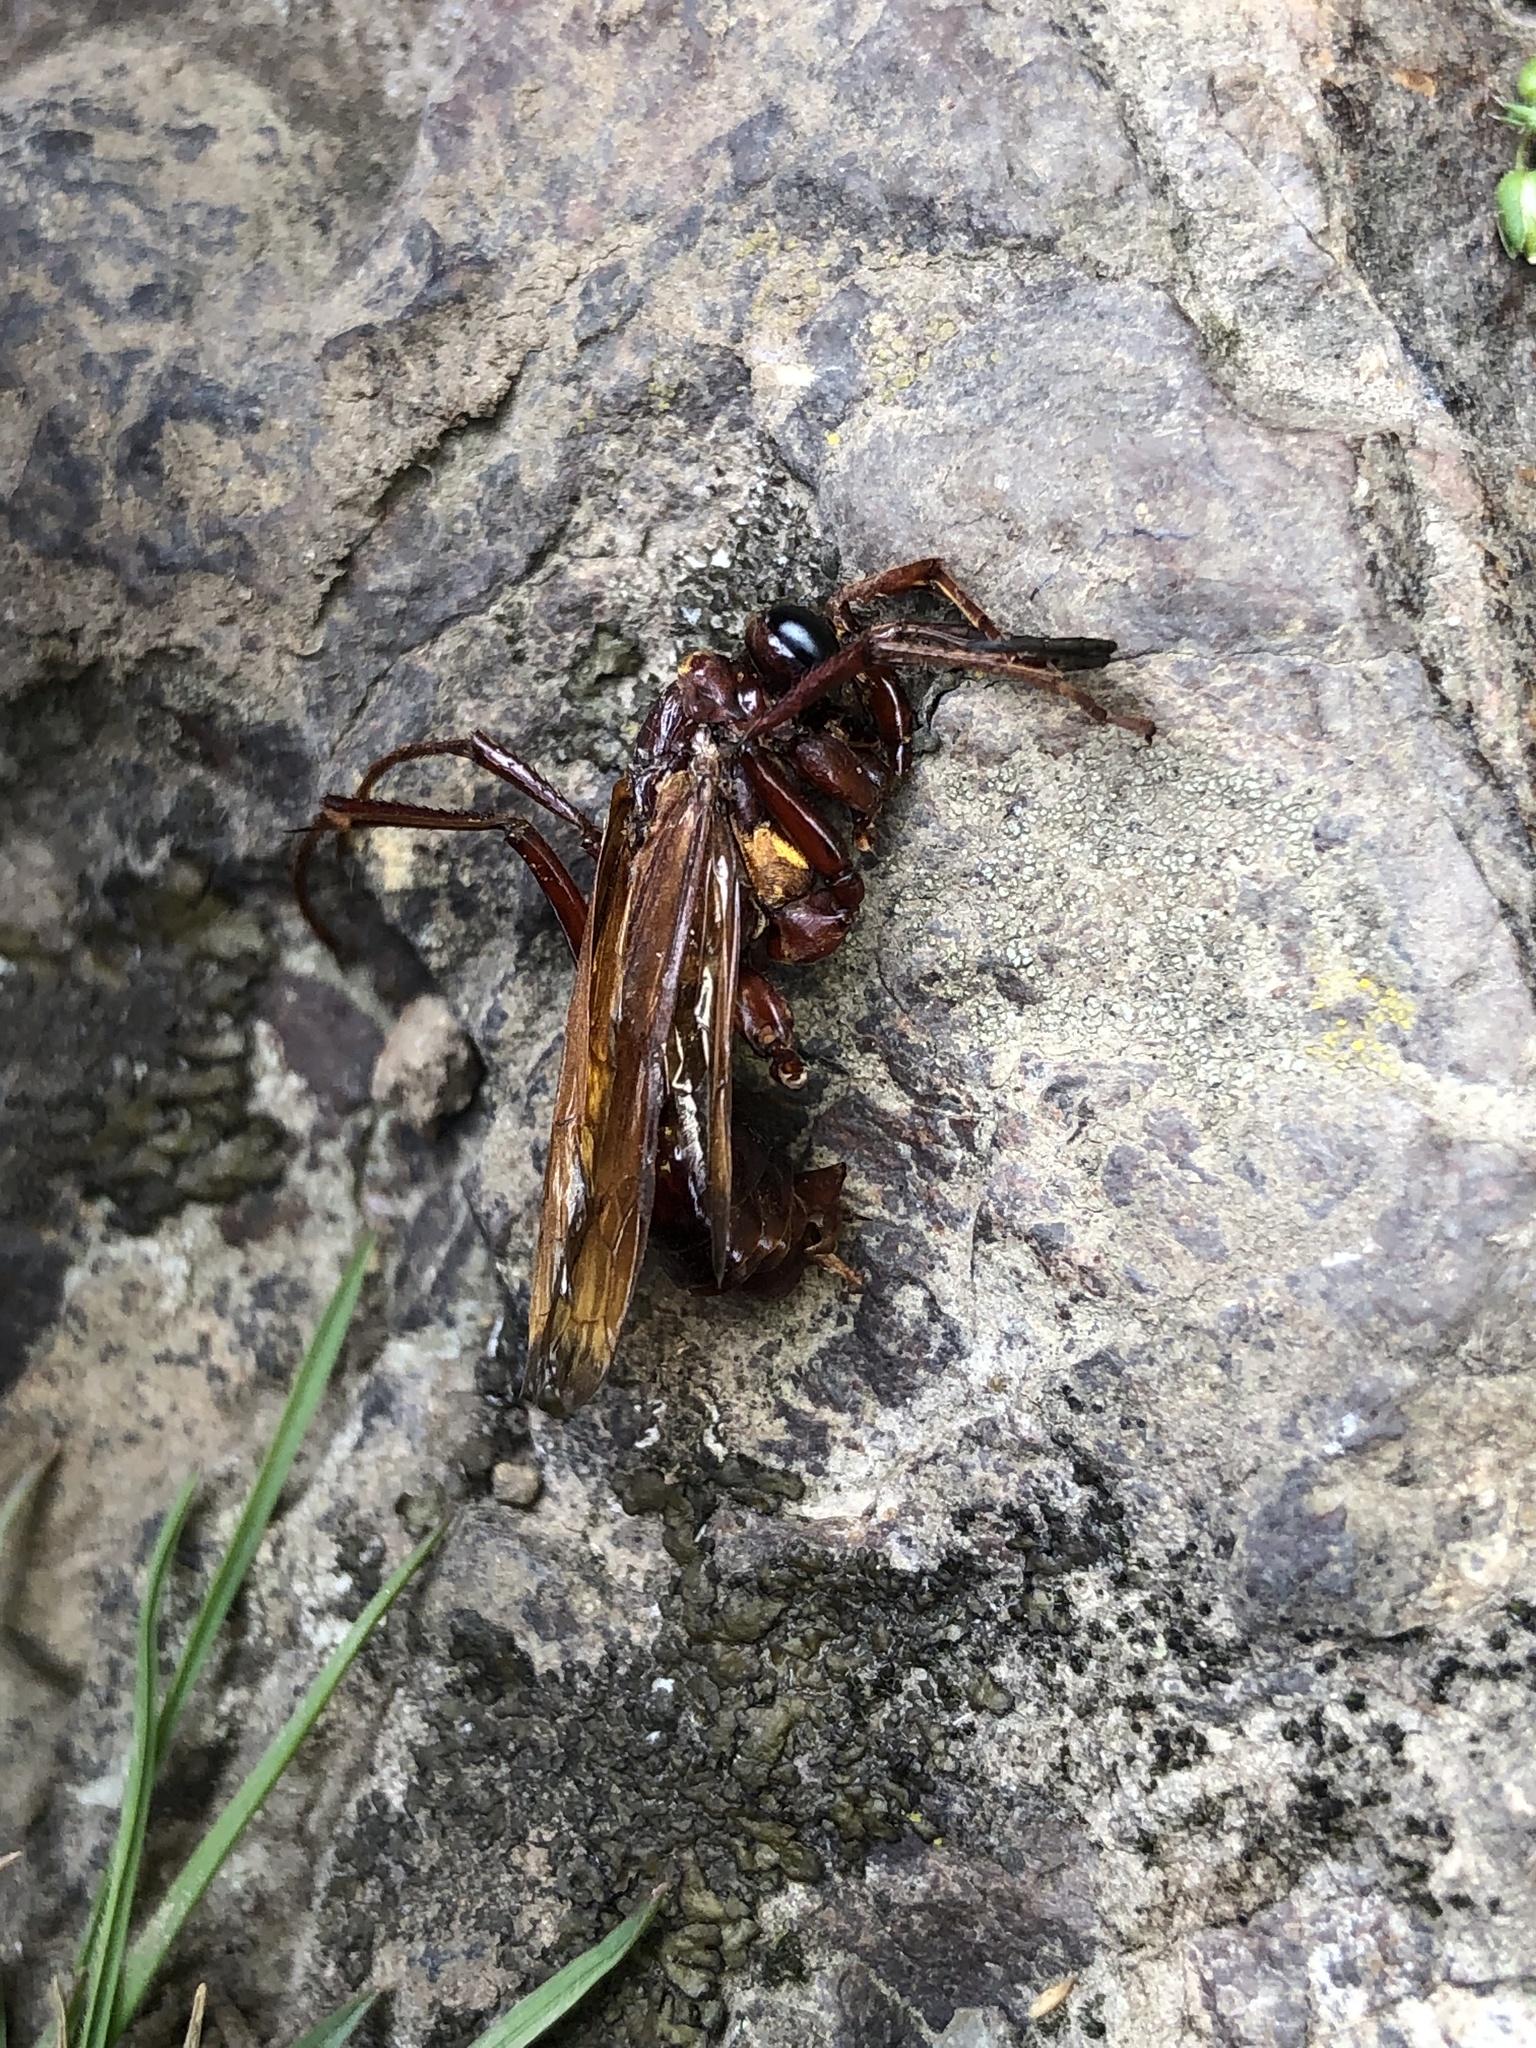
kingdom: Animalia
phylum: Arthropoda
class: Insecta
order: Hymenoptera
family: Pompilidae
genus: Sphictostethus
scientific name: Sphictostethus nitidus
